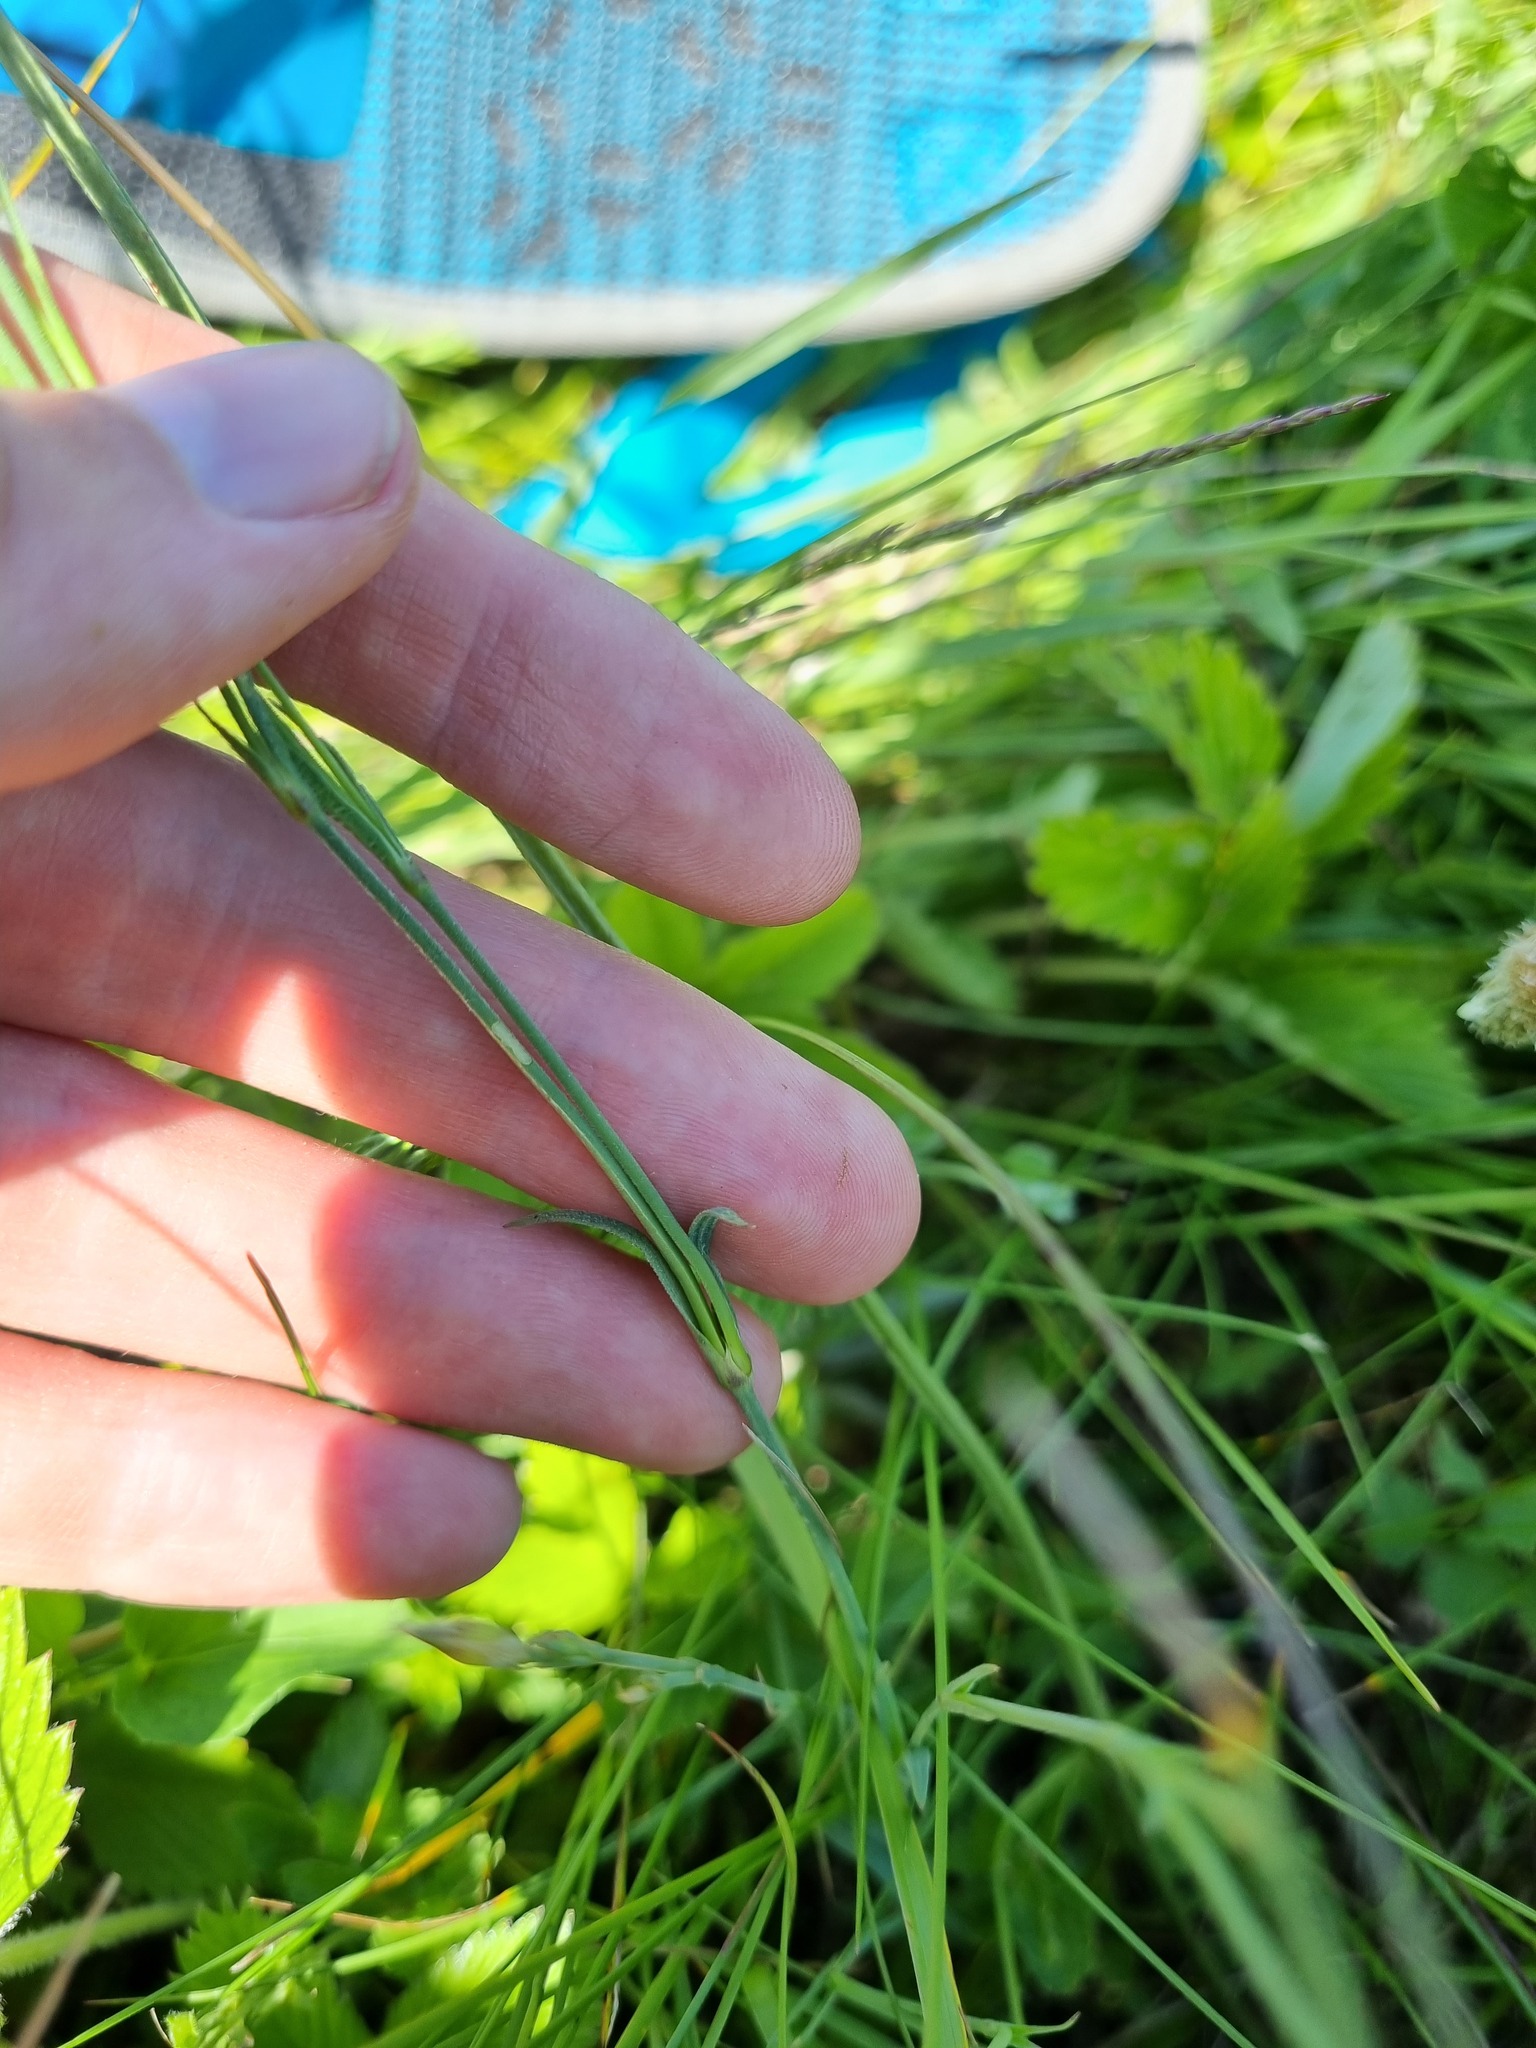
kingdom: Plantae
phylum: Tracheophyta
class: Magnoliopsida
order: Caryophyllales
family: Caryophyllaceae
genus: Dianthus
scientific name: Dianthus deltoides
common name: Maiden pink
